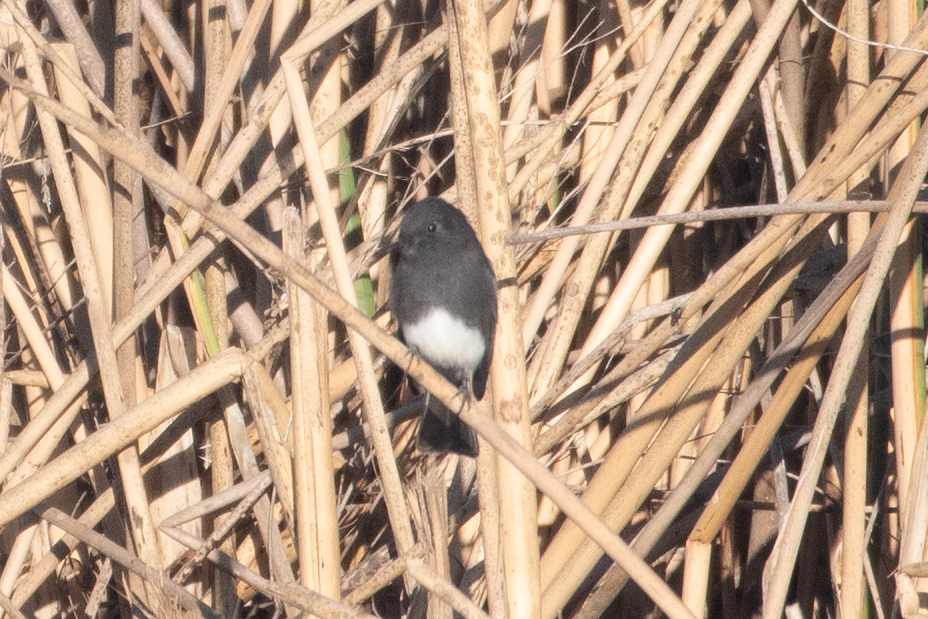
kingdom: Animalia
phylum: Chordata
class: Aves
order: Passeriformes
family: Tyrannidae
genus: Sayornis
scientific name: Sayornis nigricans
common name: Black phoebe
